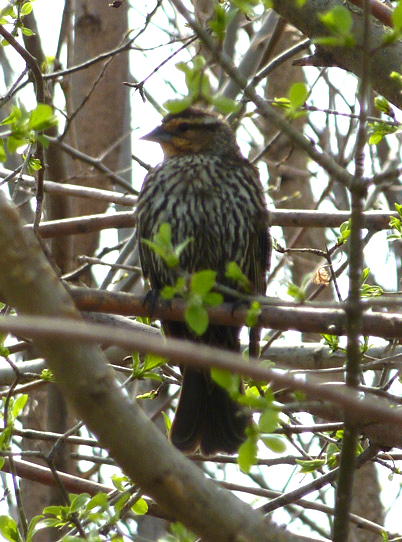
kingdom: Animalia
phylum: Chordata
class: Aves
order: Passeriformes
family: Icteridae
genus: Agelaius
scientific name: Agelaius phoeniceus
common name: Red-winged blackbird
